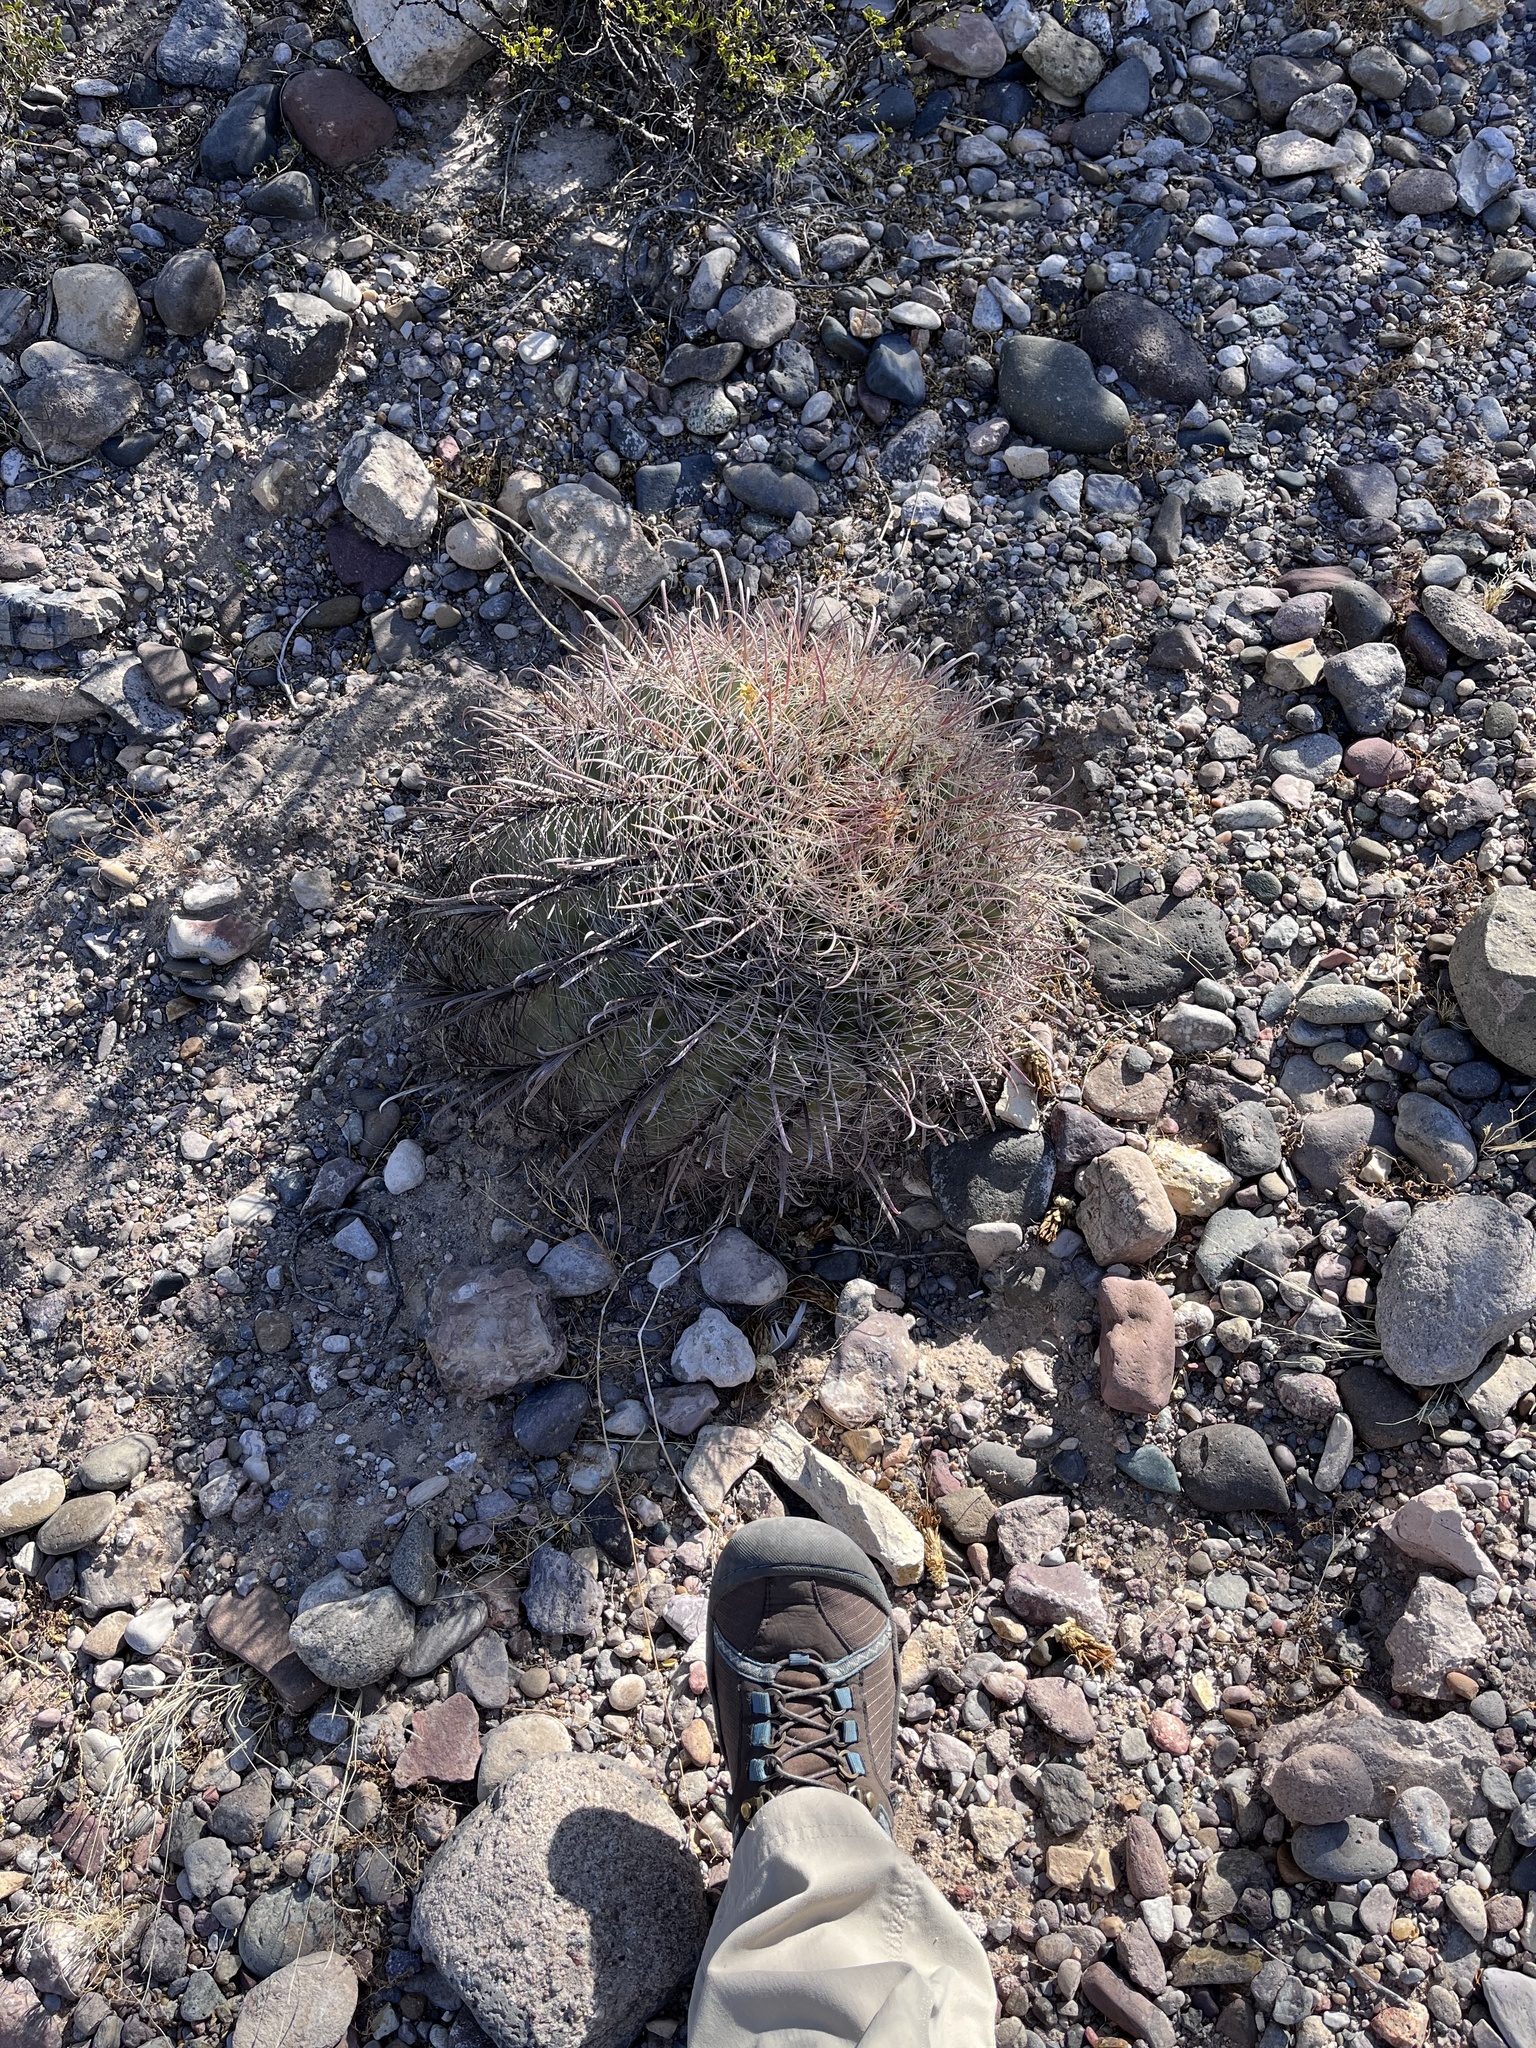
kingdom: Plantae
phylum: Tracheophyta
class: Magnoliopsida
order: Caryophyllales
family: Cactaceae
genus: Ferocactus
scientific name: Ferocactus wislizeni
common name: Candy barrel cactus
